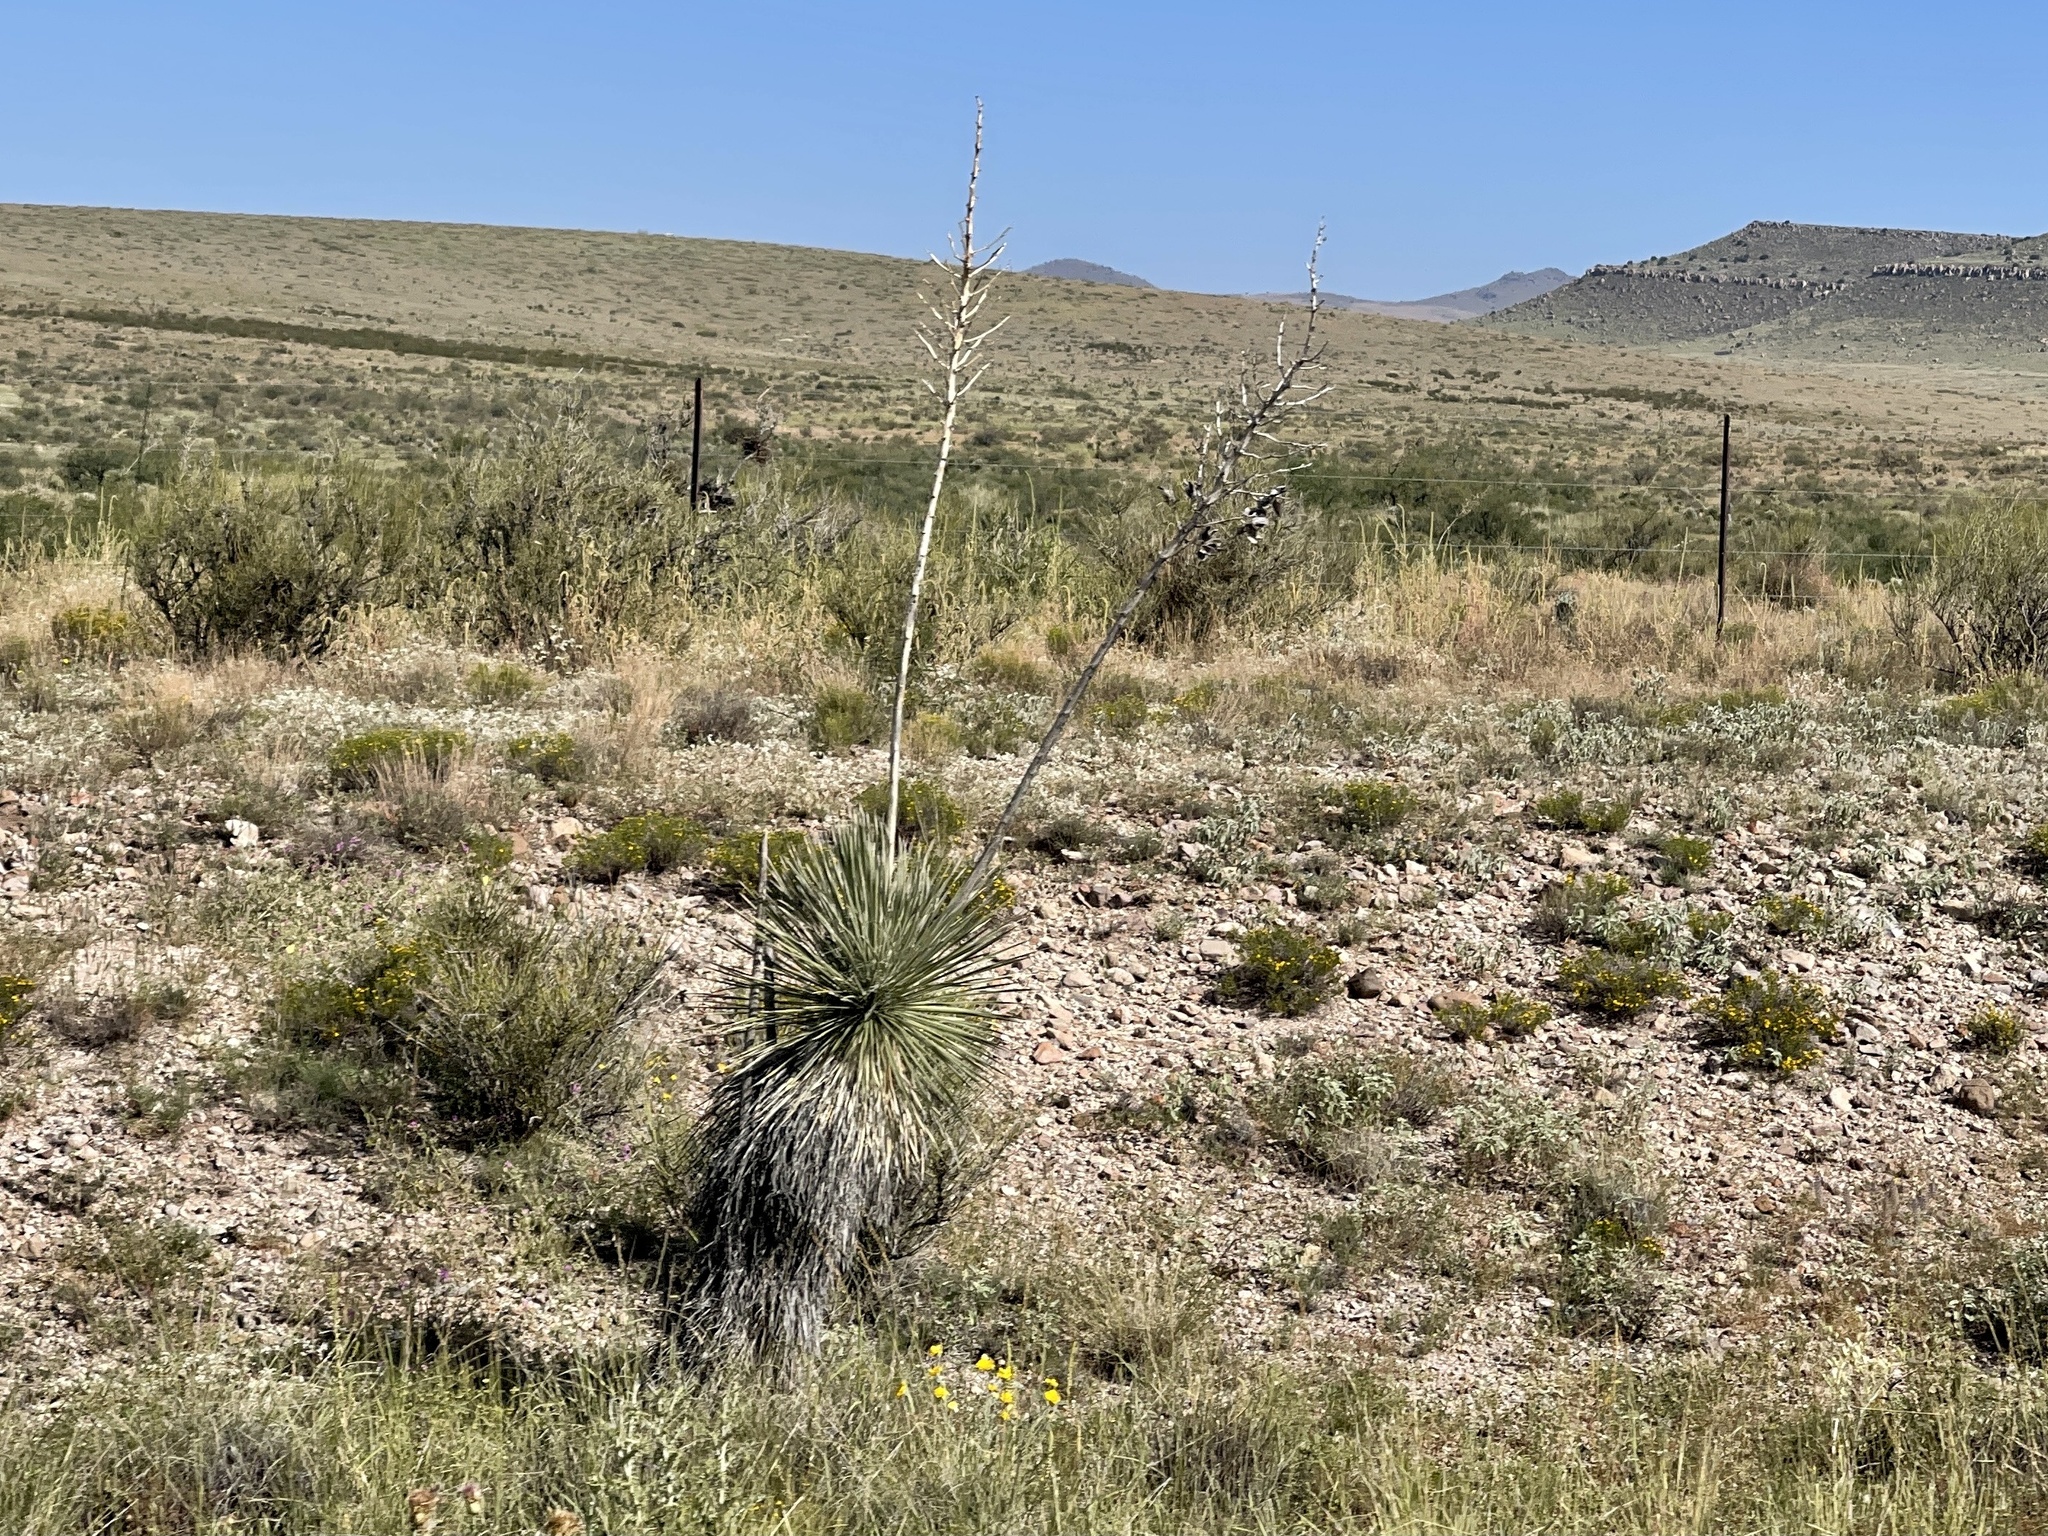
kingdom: Plantae
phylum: Tracheophyta
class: Liliopsida
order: Asparagales
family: Asparagaceae
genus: Yucca
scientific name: Yucca elata
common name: Palmella
